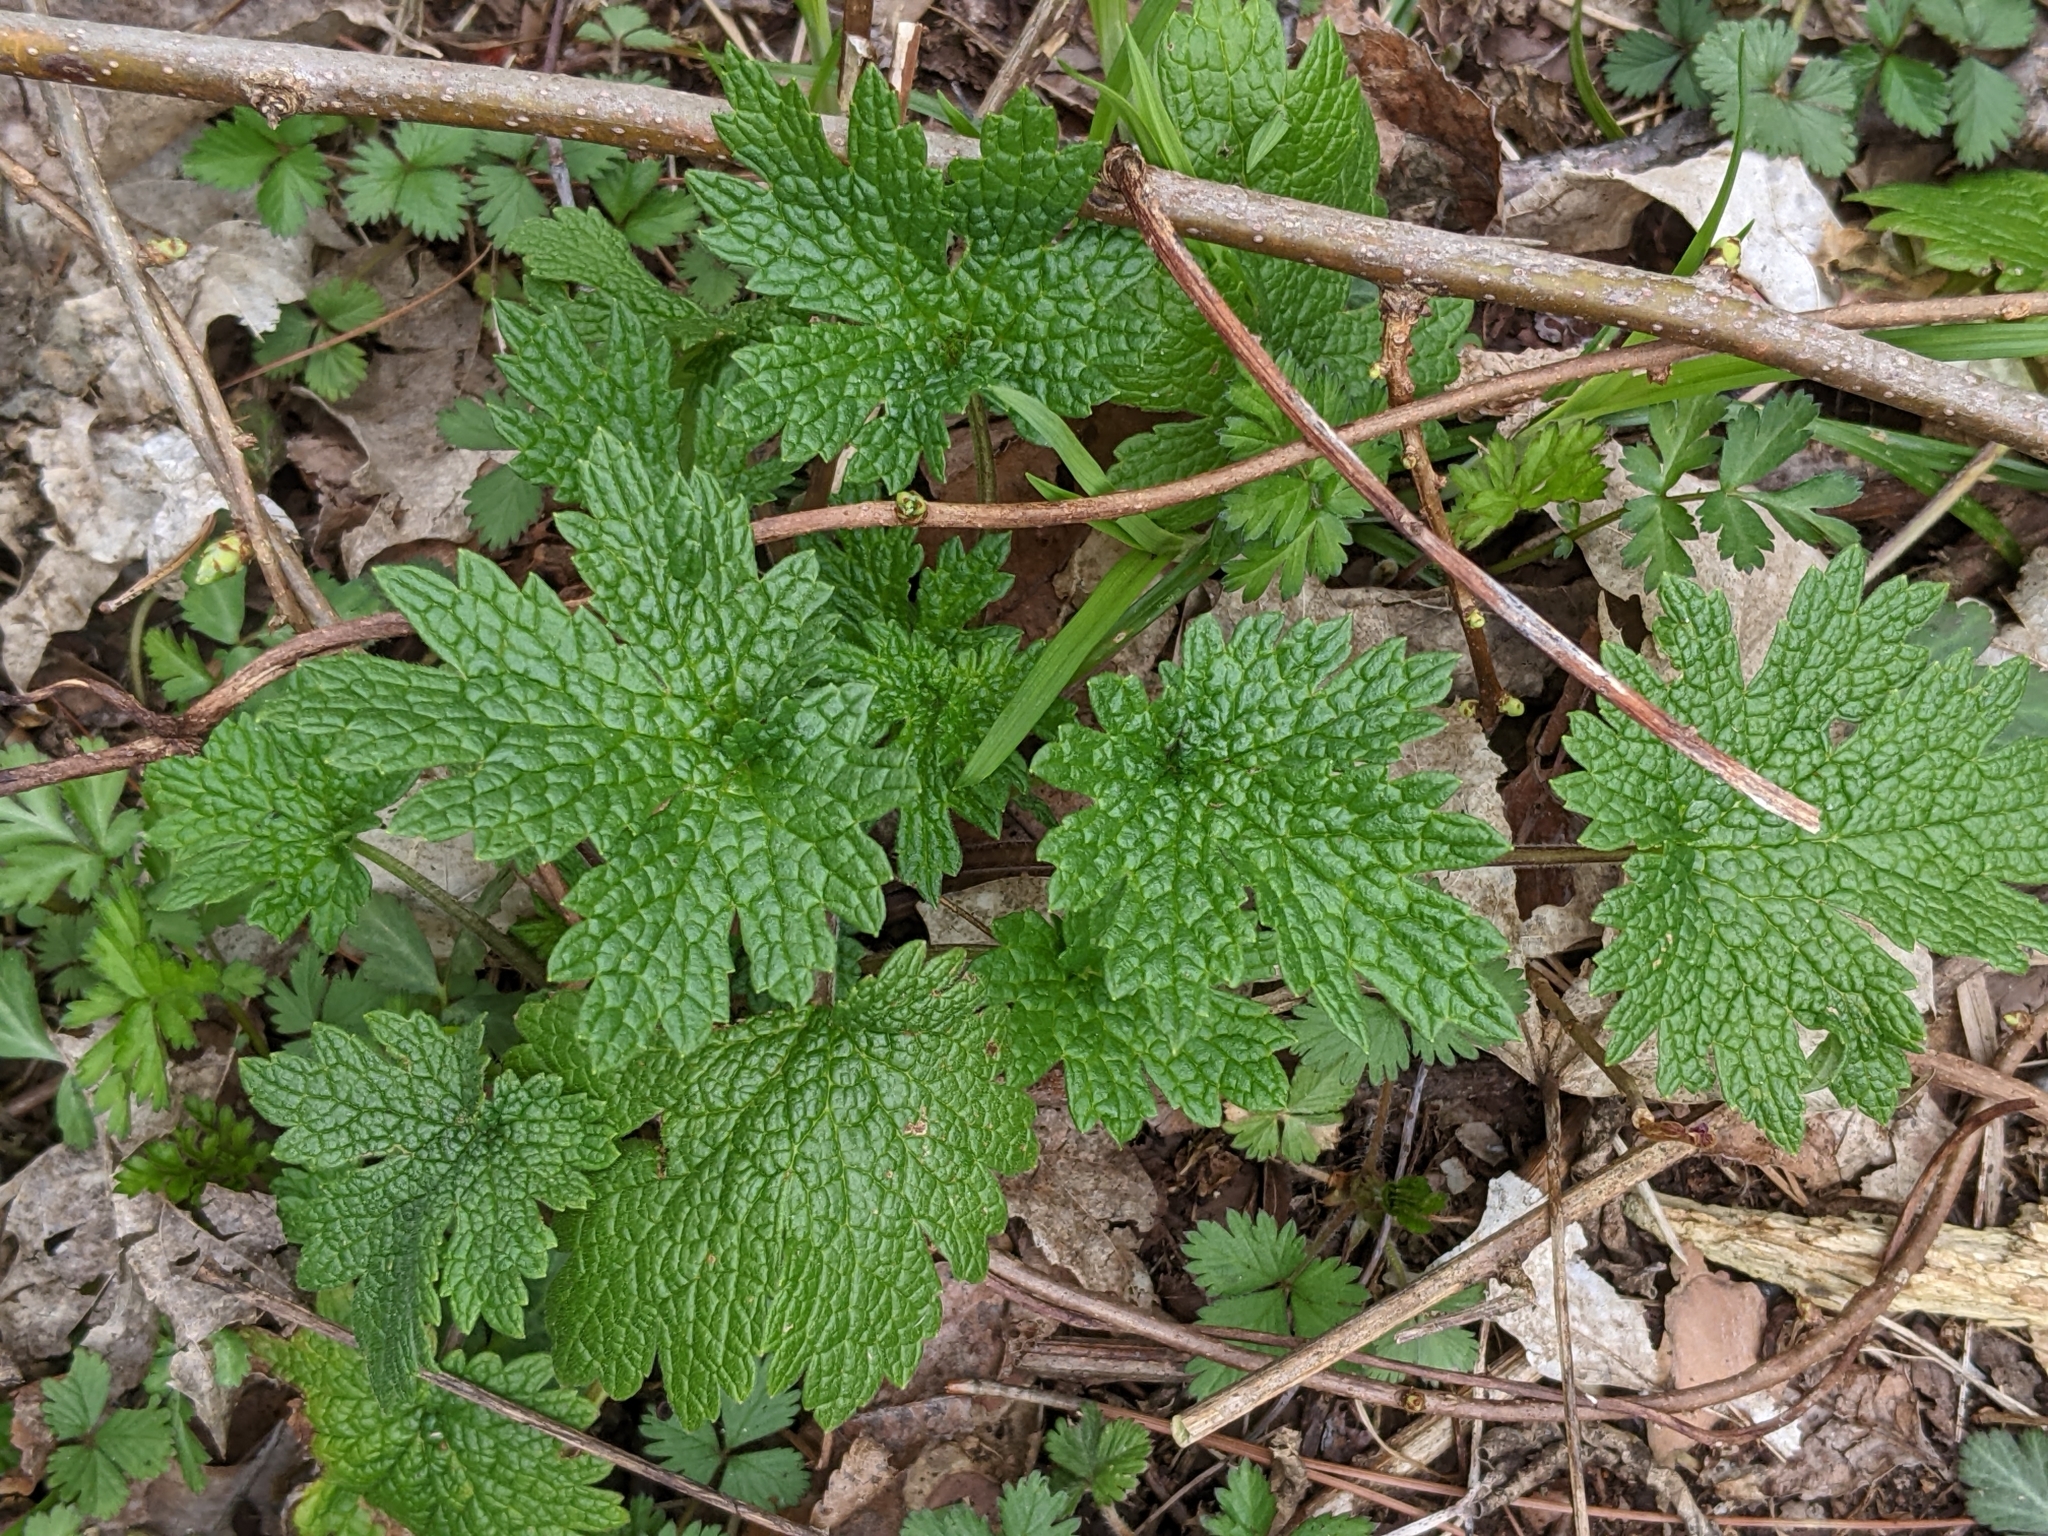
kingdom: Plantae
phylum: Tracheophyta
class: Magnoliopsida
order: Lamiales
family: Lamiaceae
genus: Leonurus
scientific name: Leonurus cardiaca
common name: Motherwort
